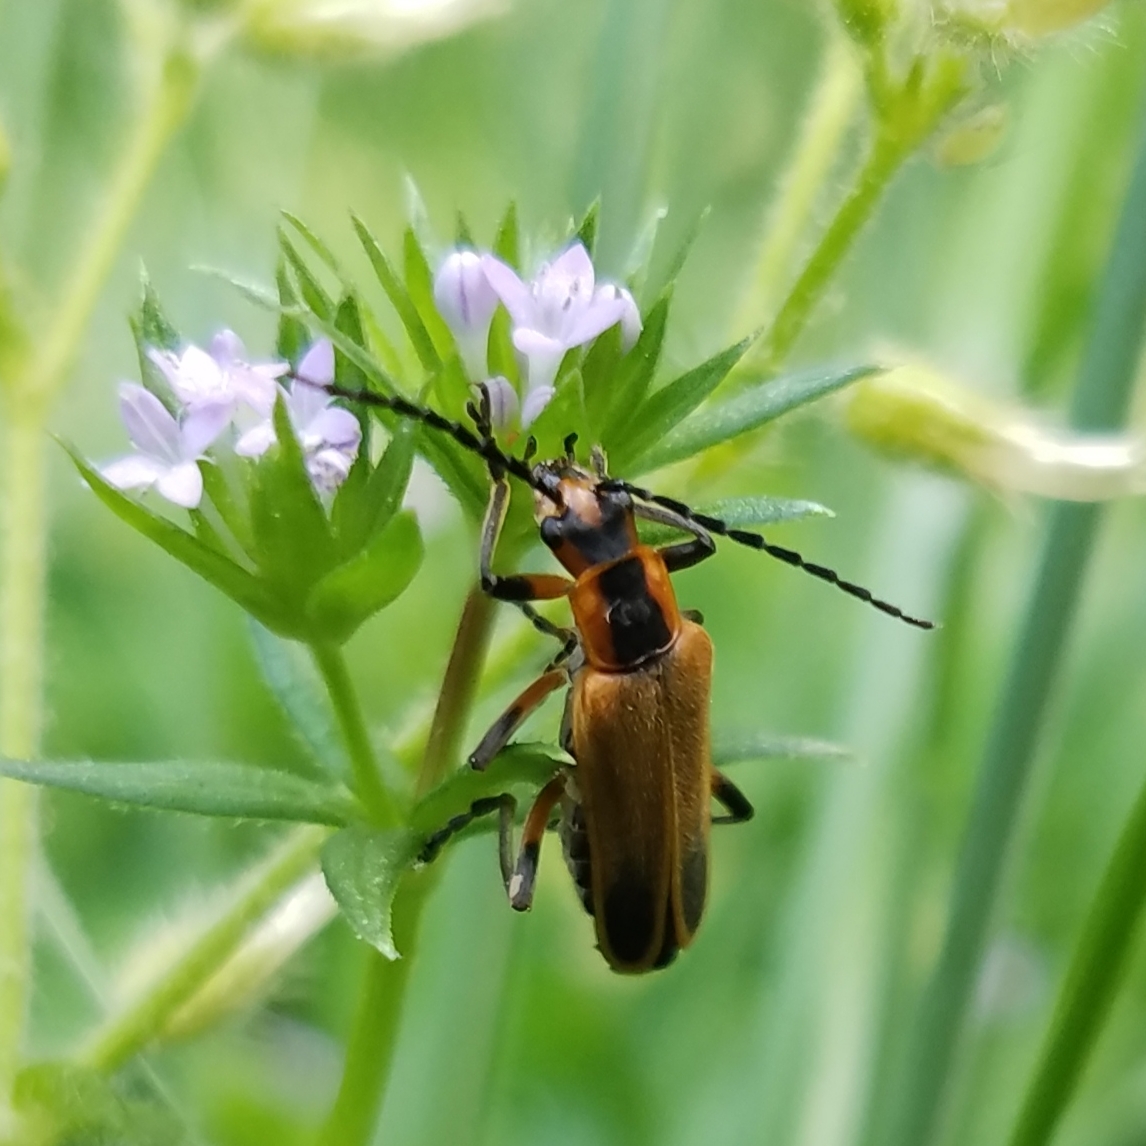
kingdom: Animalia
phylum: Arthropoda
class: Insecta
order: Coleoptera
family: Cantharidae
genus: Chauliognathus
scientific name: Chauliognathus marginatus
